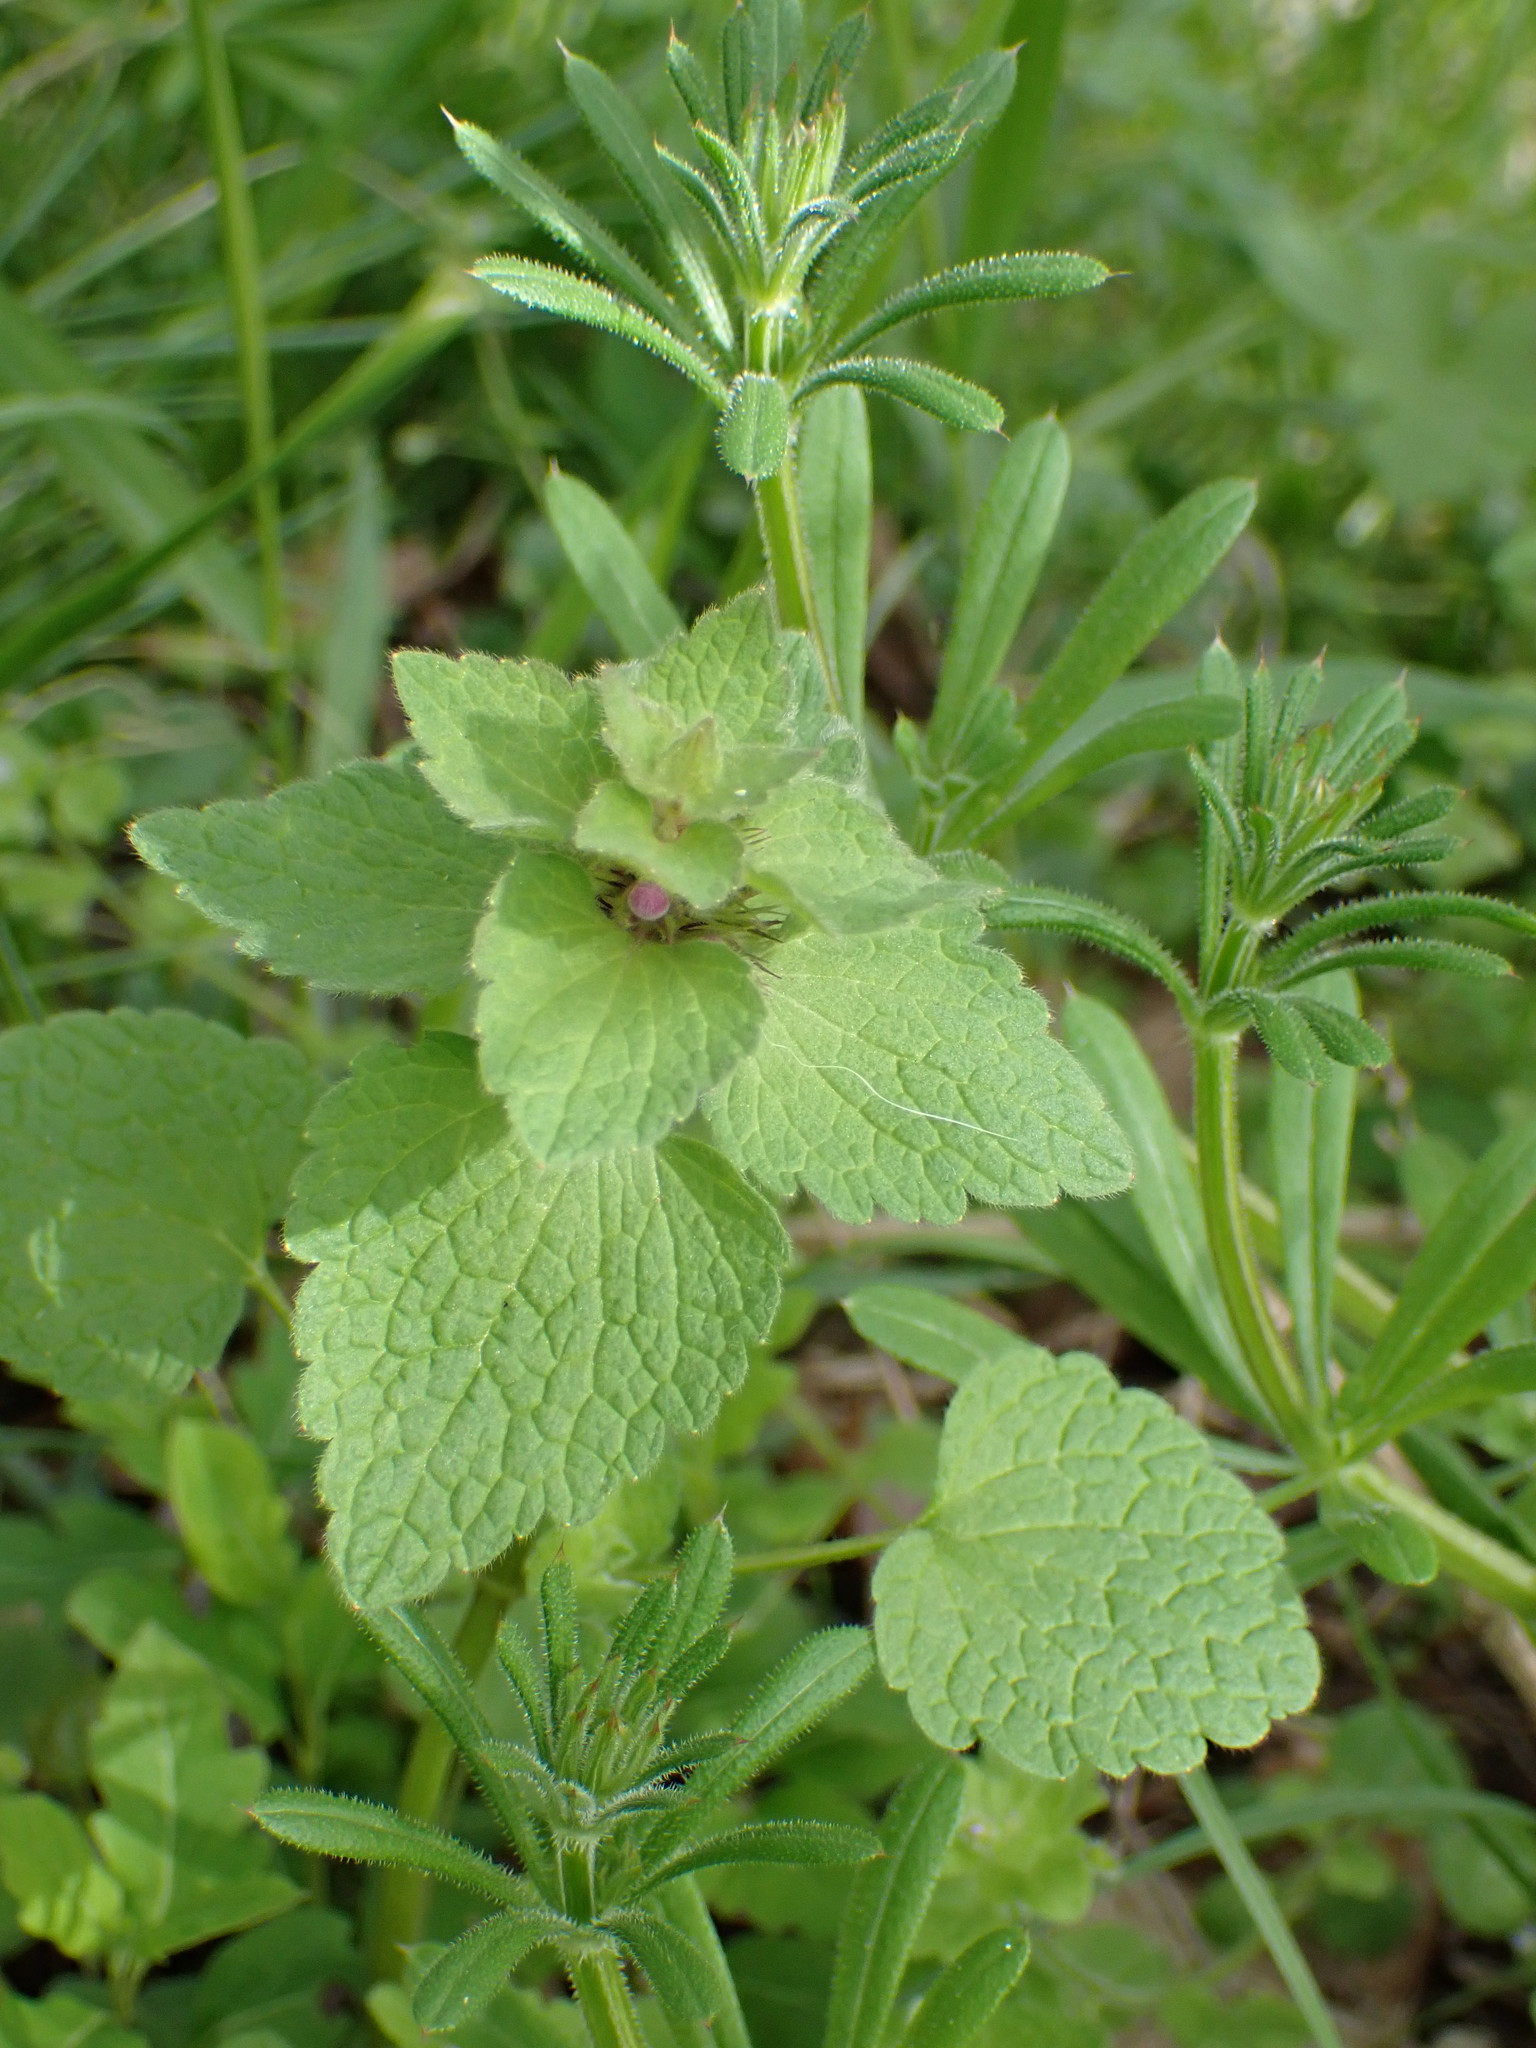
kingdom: Plantae
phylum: Tracheophyta
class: Magnoliopsida
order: Lamiales
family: Lamiaceae
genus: Lamium
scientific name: Lamium purpureum
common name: Red dead-nettle
